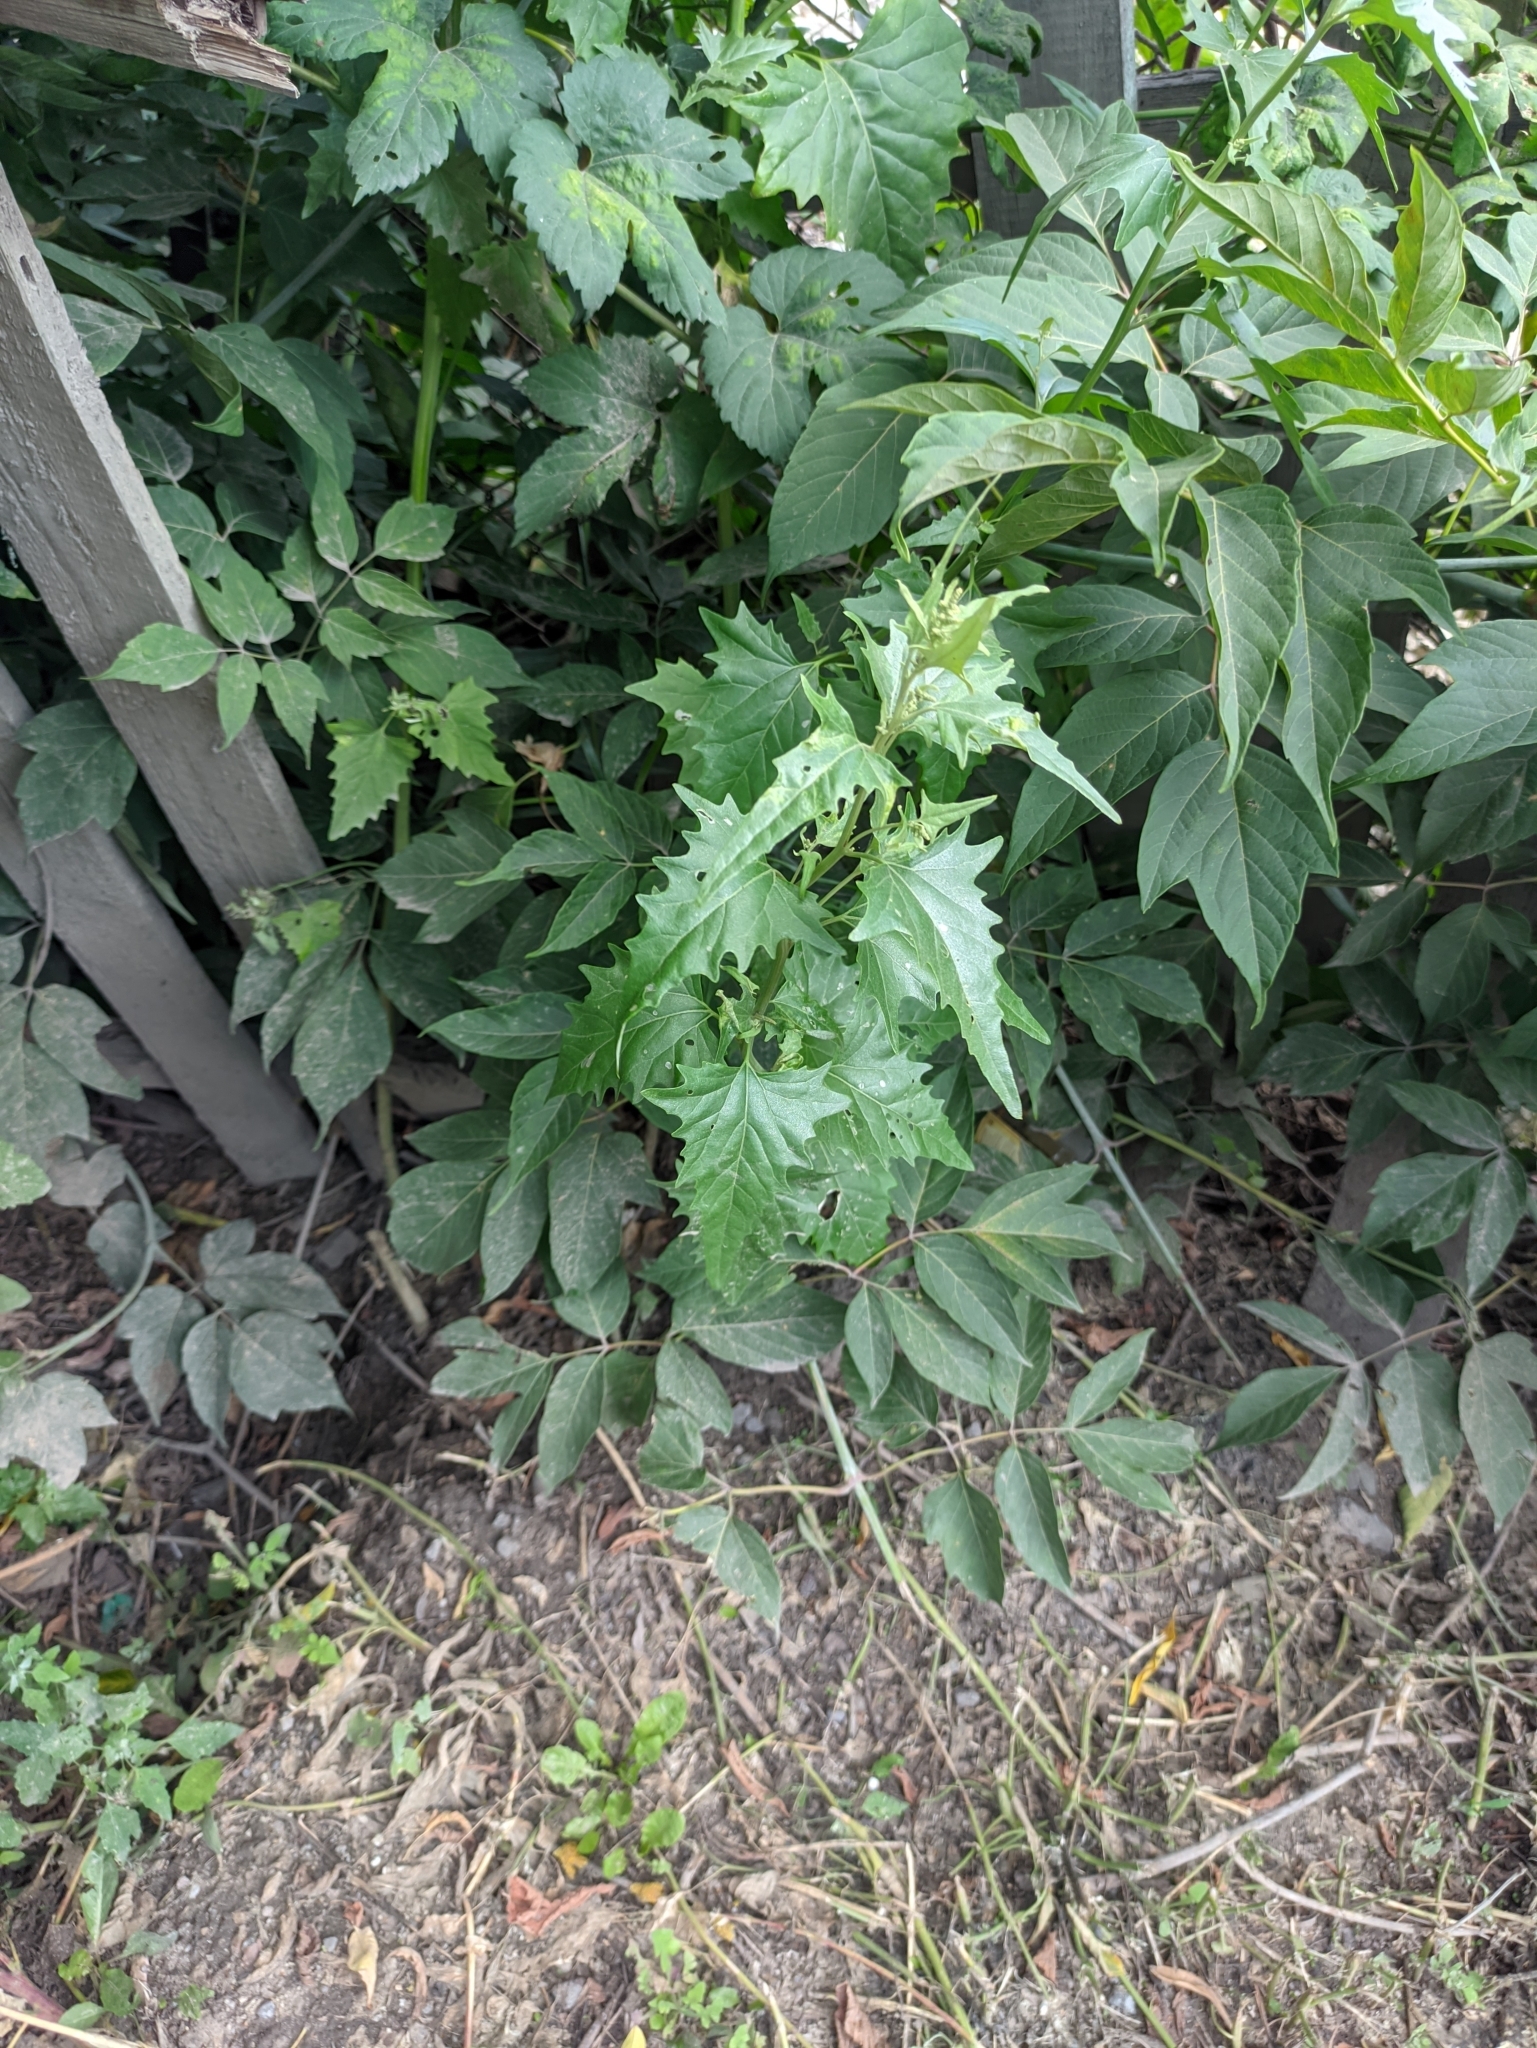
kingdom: Plantae
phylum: Tracheophyta
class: Magnoliopsida
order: Caryophyllales
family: Amaranthaceae
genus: Atriplex
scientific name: Atriplex sagittata
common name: Purple orache
